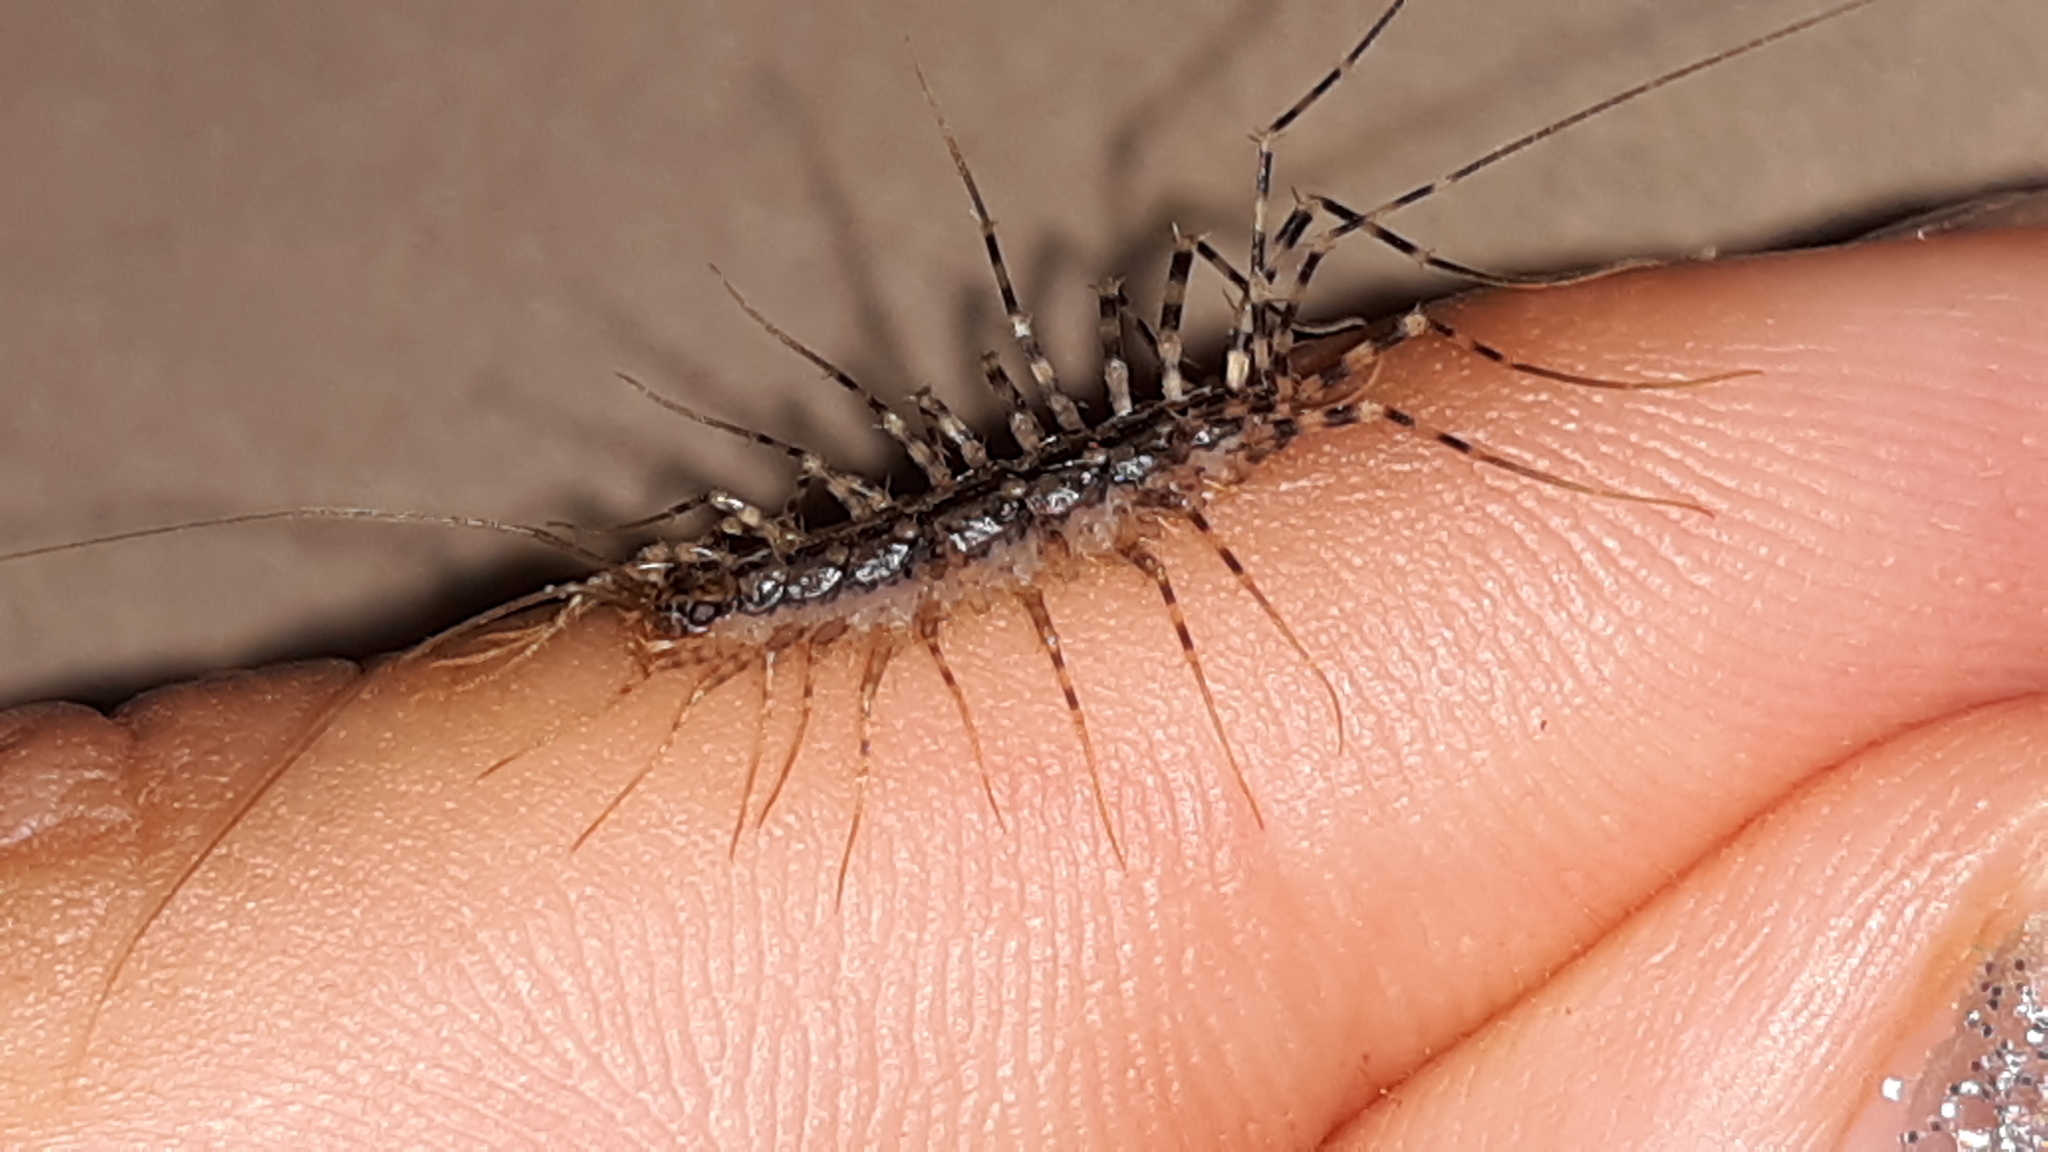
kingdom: Animalia
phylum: Arthropoda
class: Chilopoda
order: Scutigeromorpha
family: Scutigeridae
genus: Thereuonema
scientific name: Thereuonema tuberculata
